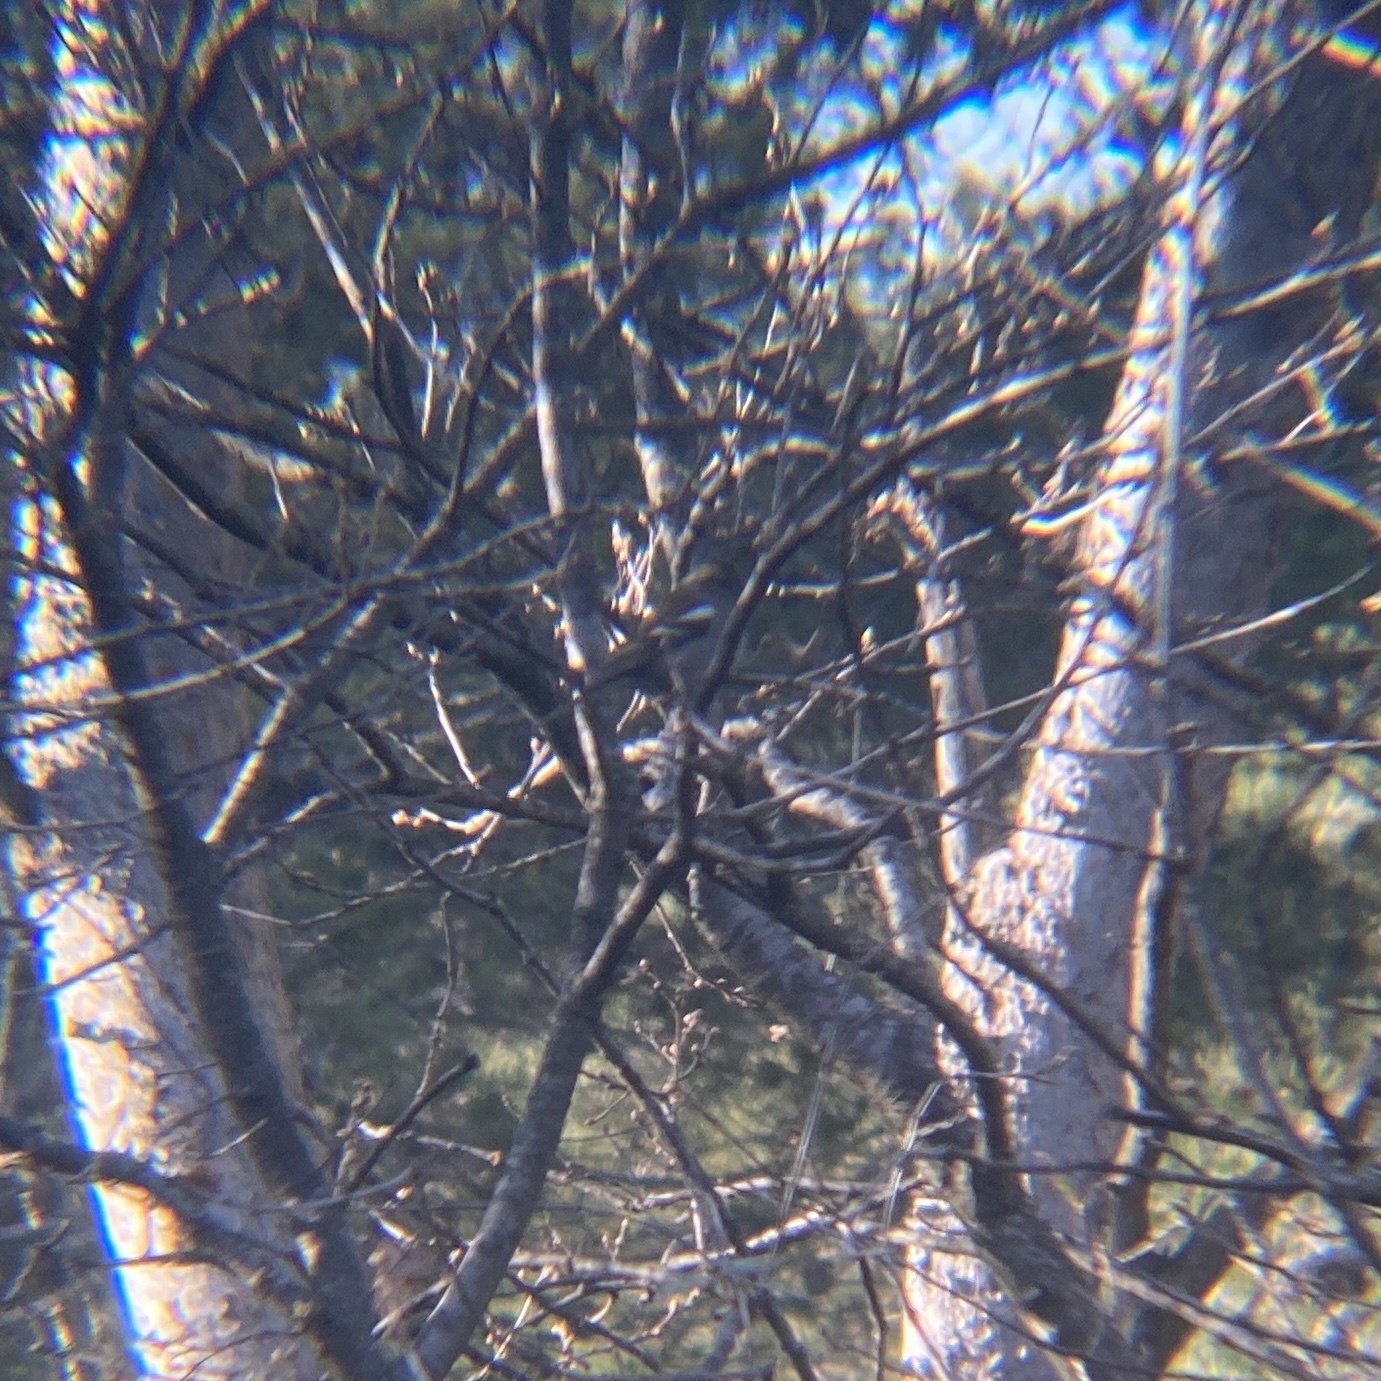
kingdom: Animalia
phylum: Chordata
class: Aves
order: Passeriformes
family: Fringillidae
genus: Fringilla
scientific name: Fringilla coelebs
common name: Common chaffinch
